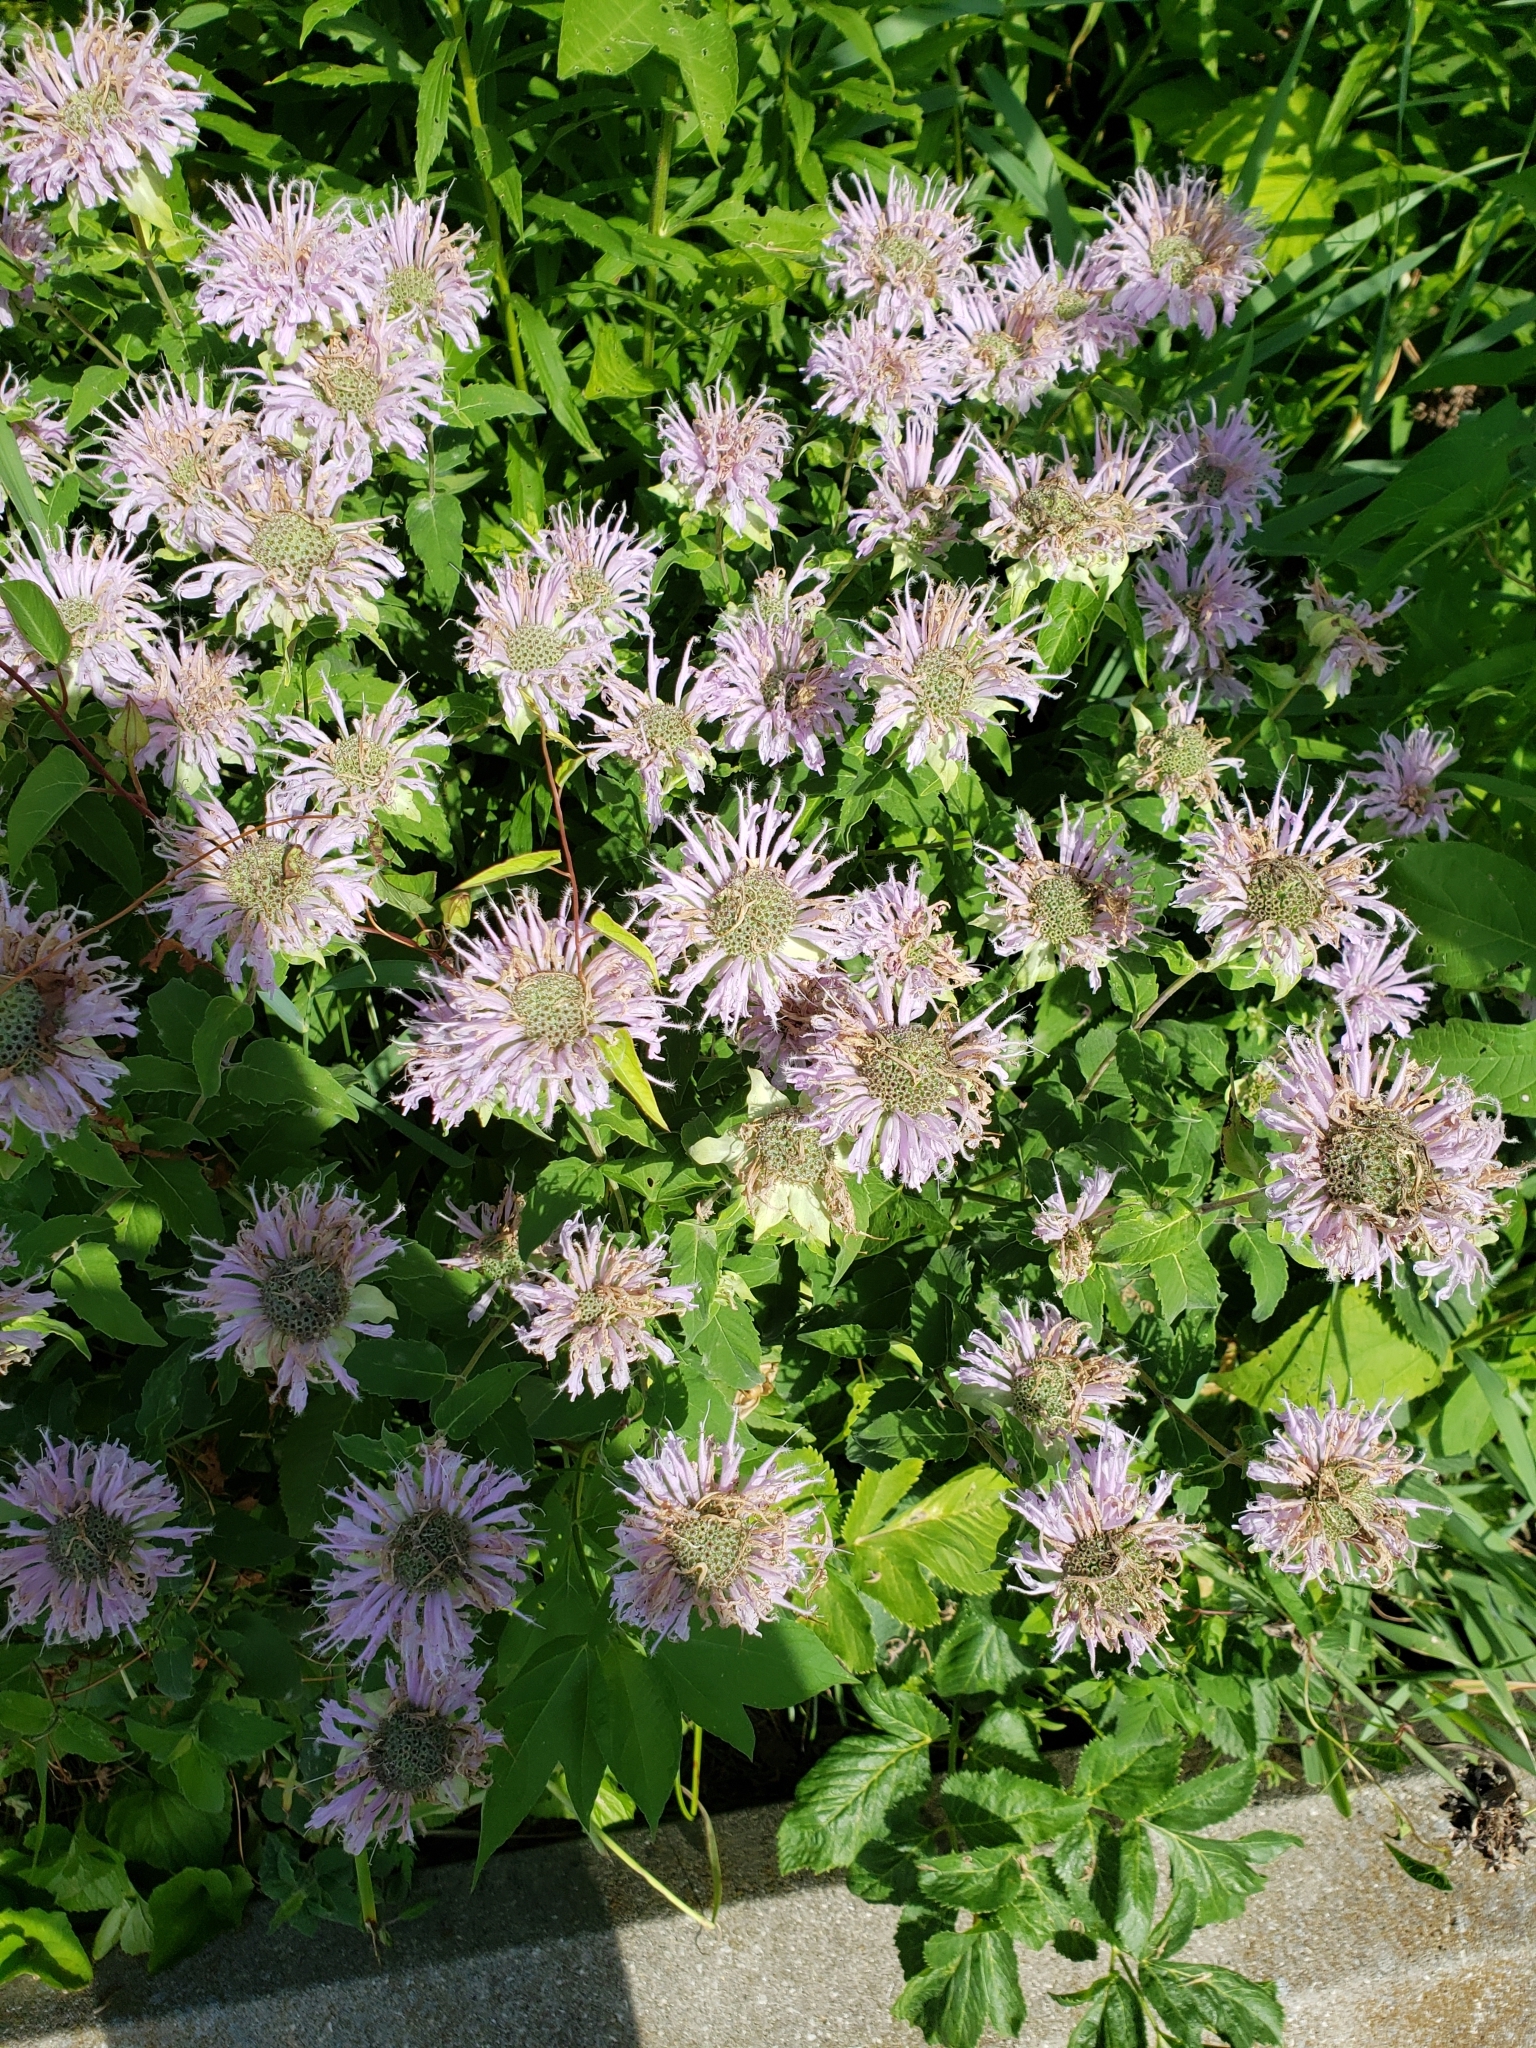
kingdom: Plantae
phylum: Tracheophyta
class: Magnoliopsida
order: Lamiales
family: Lamiaceae
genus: Monarda
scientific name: Monarda fistulosa
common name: Purple beebalm
